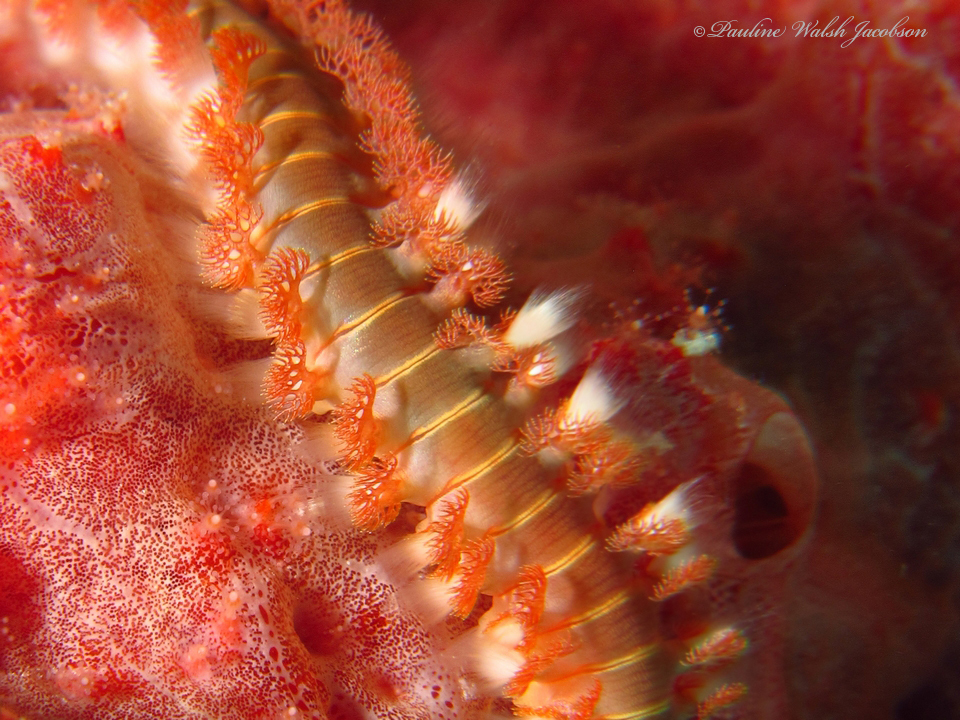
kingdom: Animalia
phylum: Annelida
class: Polychaeta
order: Amphinomida
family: Amphinomidae
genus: Hermodice
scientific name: Hermodice carunculata
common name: Bearded fireworm
